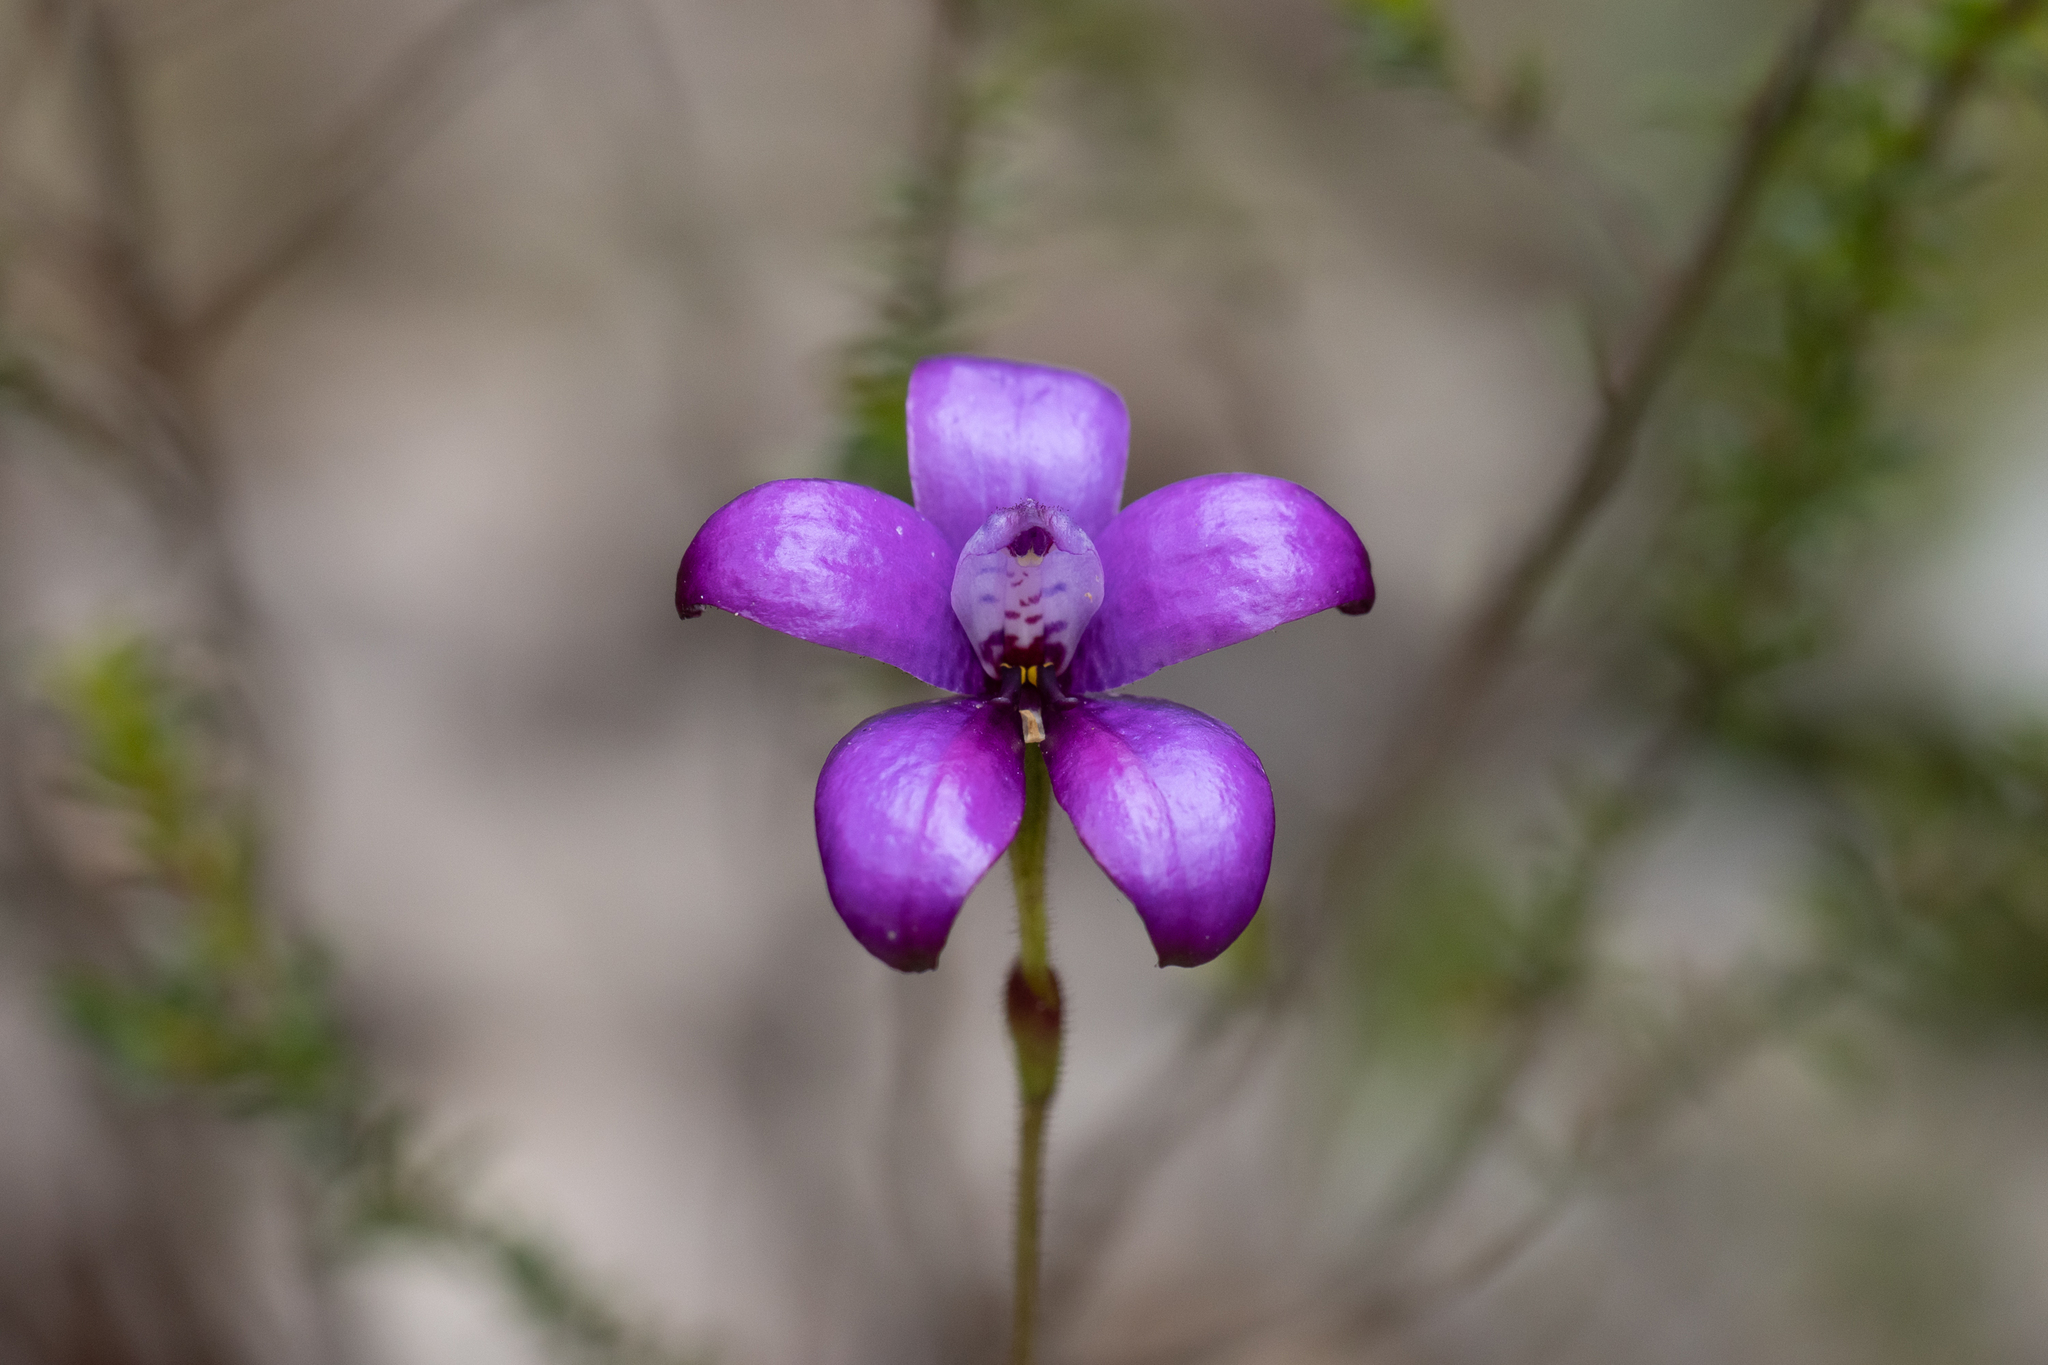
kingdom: Plantae
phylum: Tracheophyta
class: Liliopsida
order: Asparagales
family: Orchidaceae
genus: Caladenia
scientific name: Caladenia brunonis
